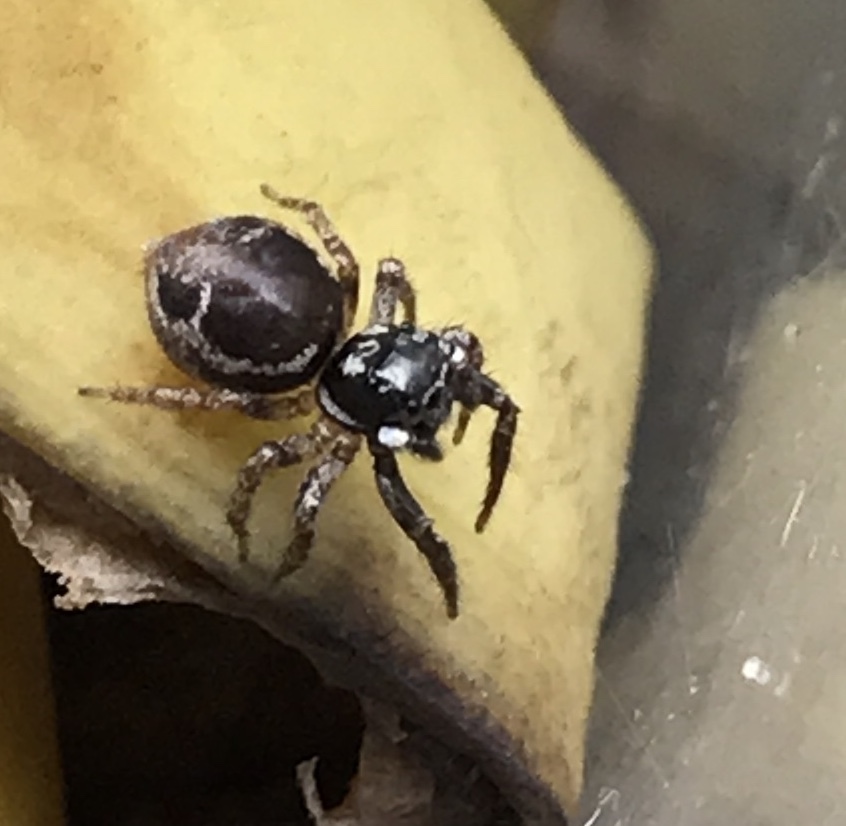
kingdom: Animalia
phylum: Arthropoda
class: Arachnida
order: Araneae
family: Salticidae
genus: Anasaitis
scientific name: Anasaitis canosa
